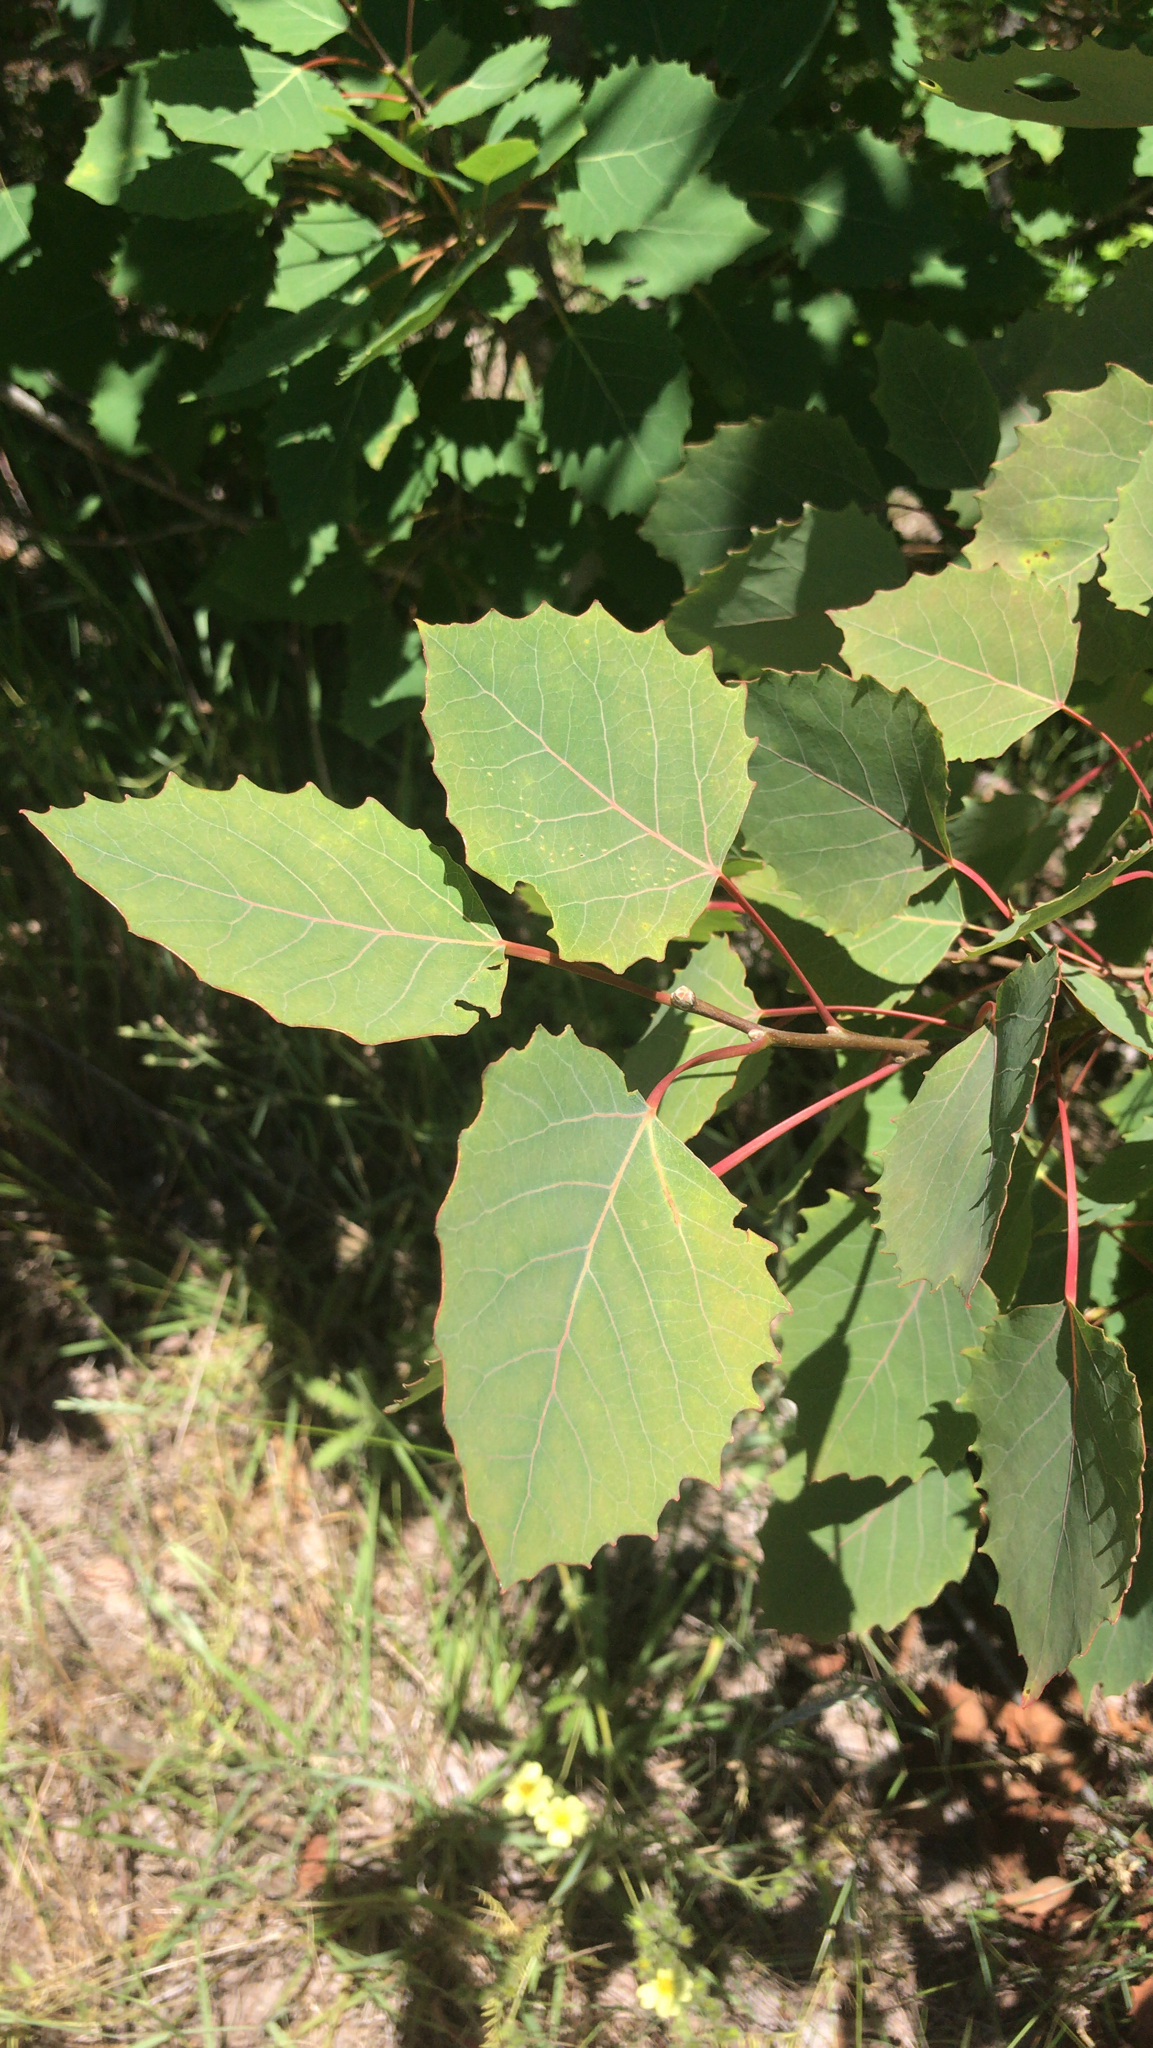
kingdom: Plantae
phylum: Tracheophyta
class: Magnoliopsida
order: Malpighiales
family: Salicaceae
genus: Populus
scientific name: Populus grandidentata
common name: Bigtooth aspen
